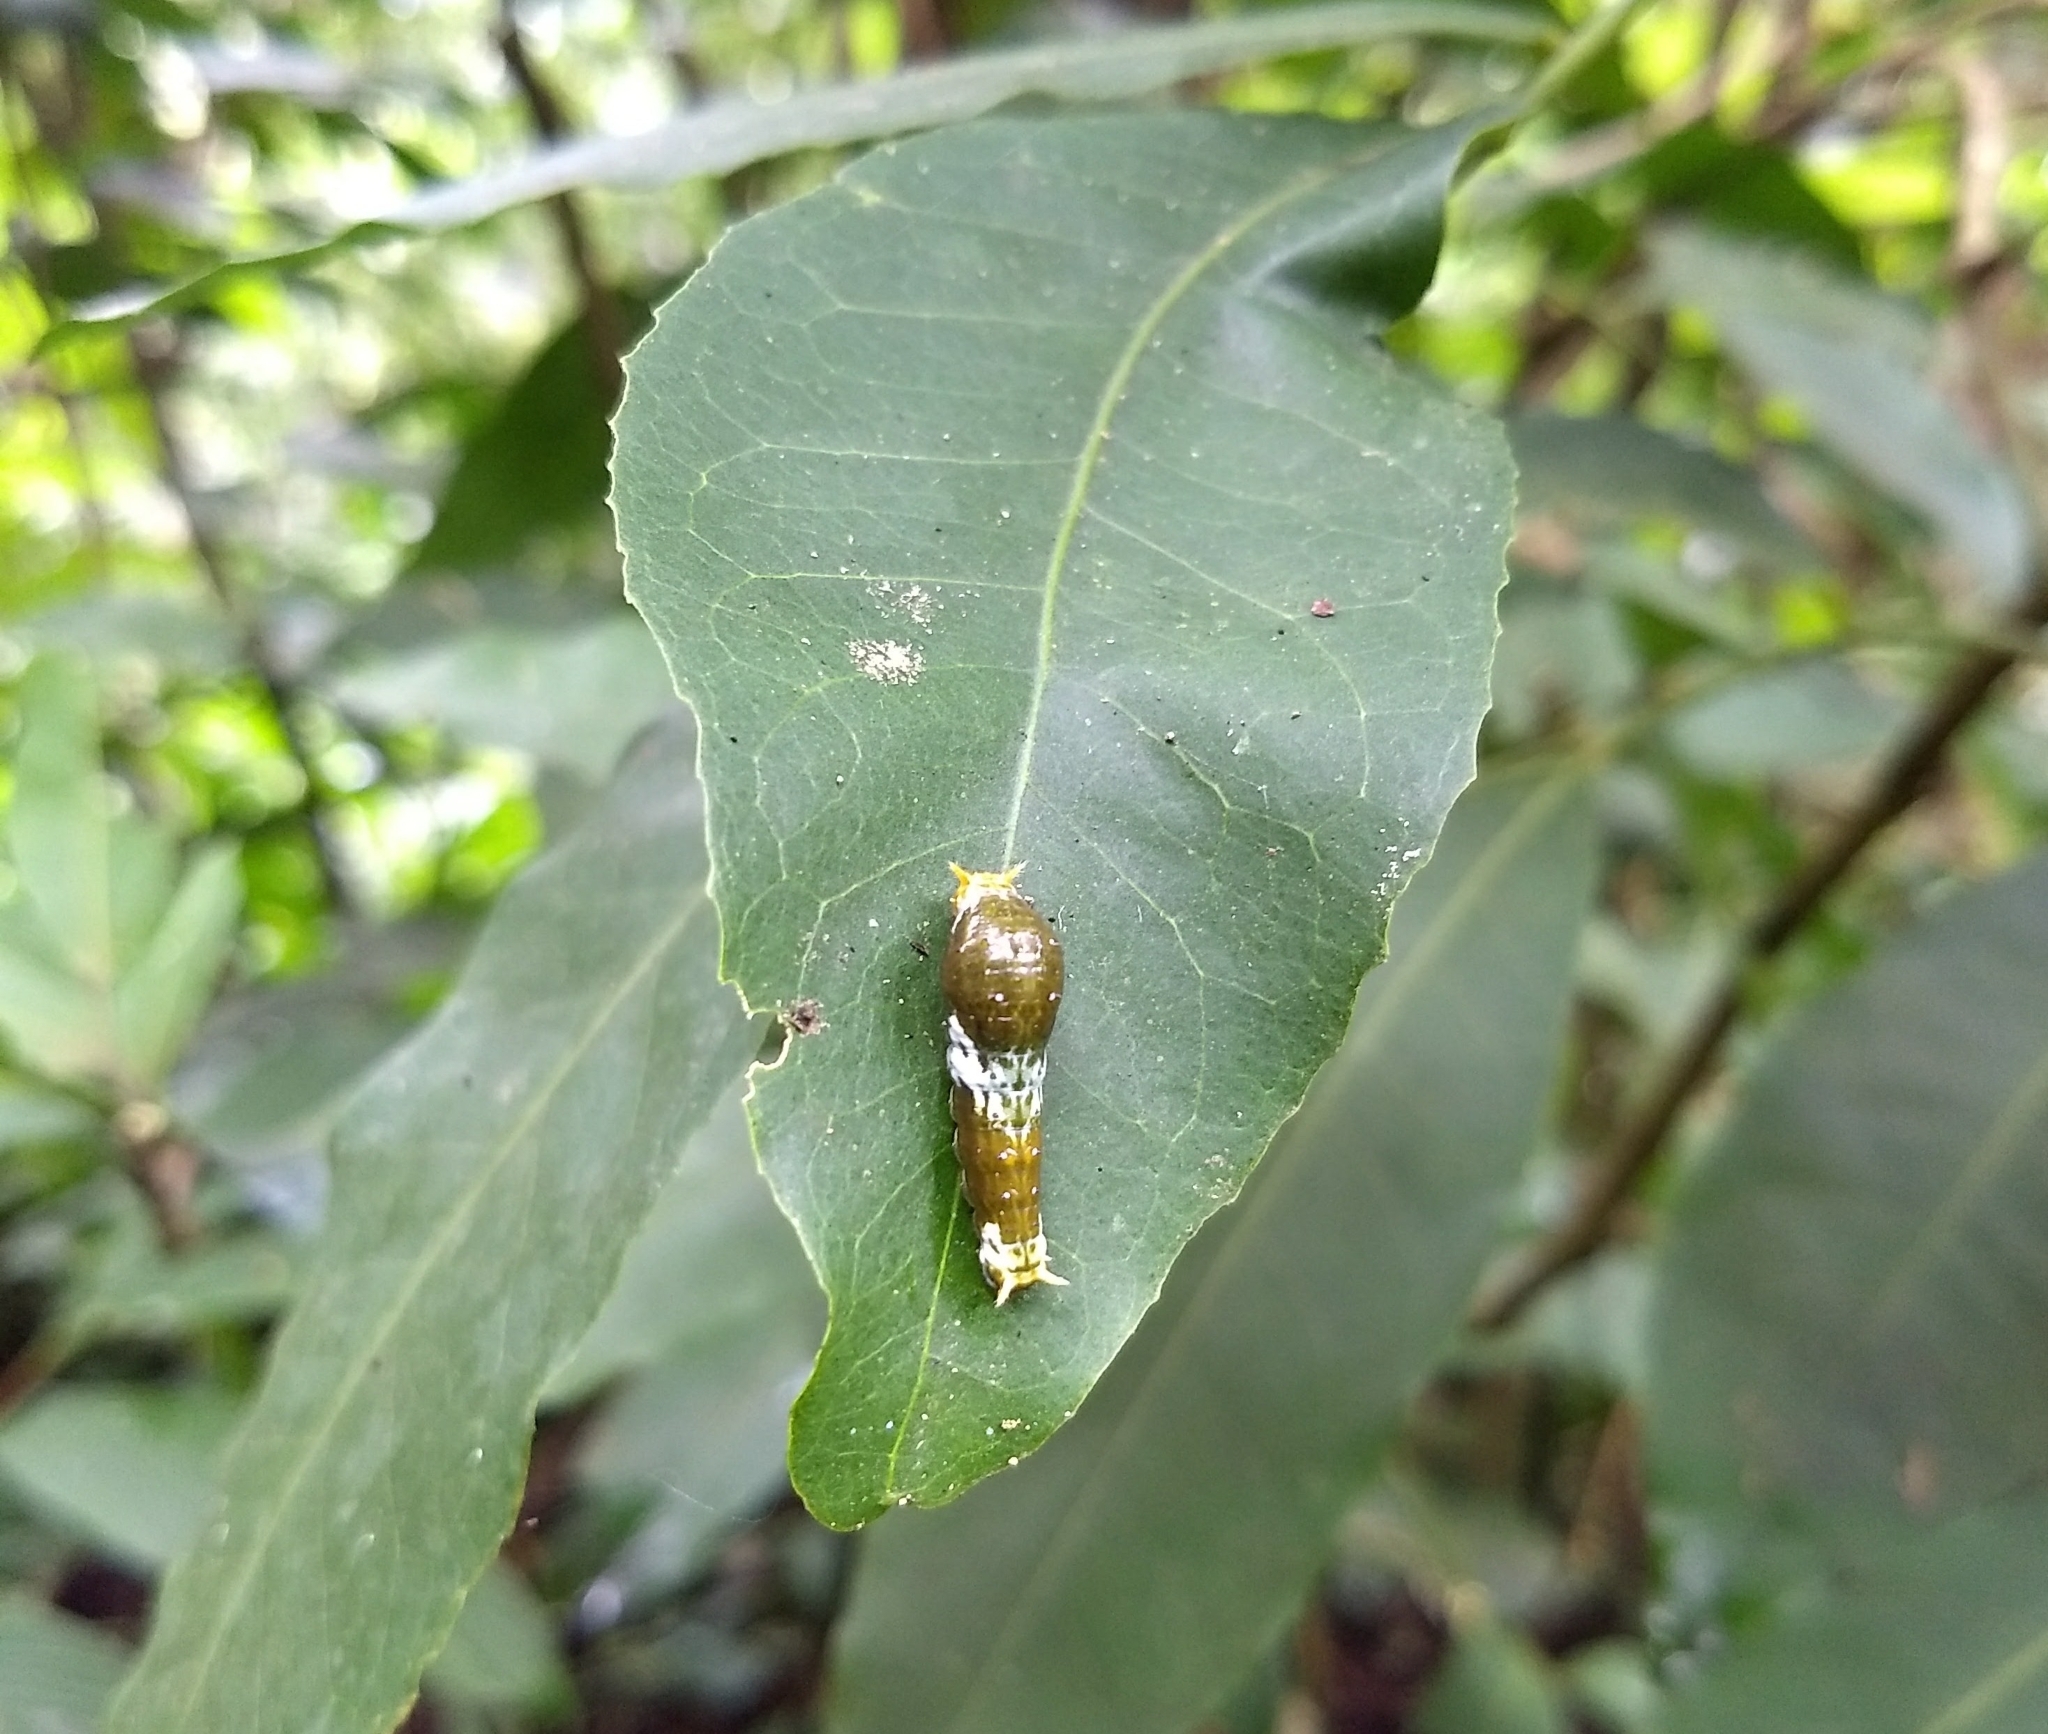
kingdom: Animalia
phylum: Arthropoda
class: Insecta
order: Lepidoptera
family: Papilionidae
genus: Papilio
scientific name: Papilio polytes
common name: Common mormon
